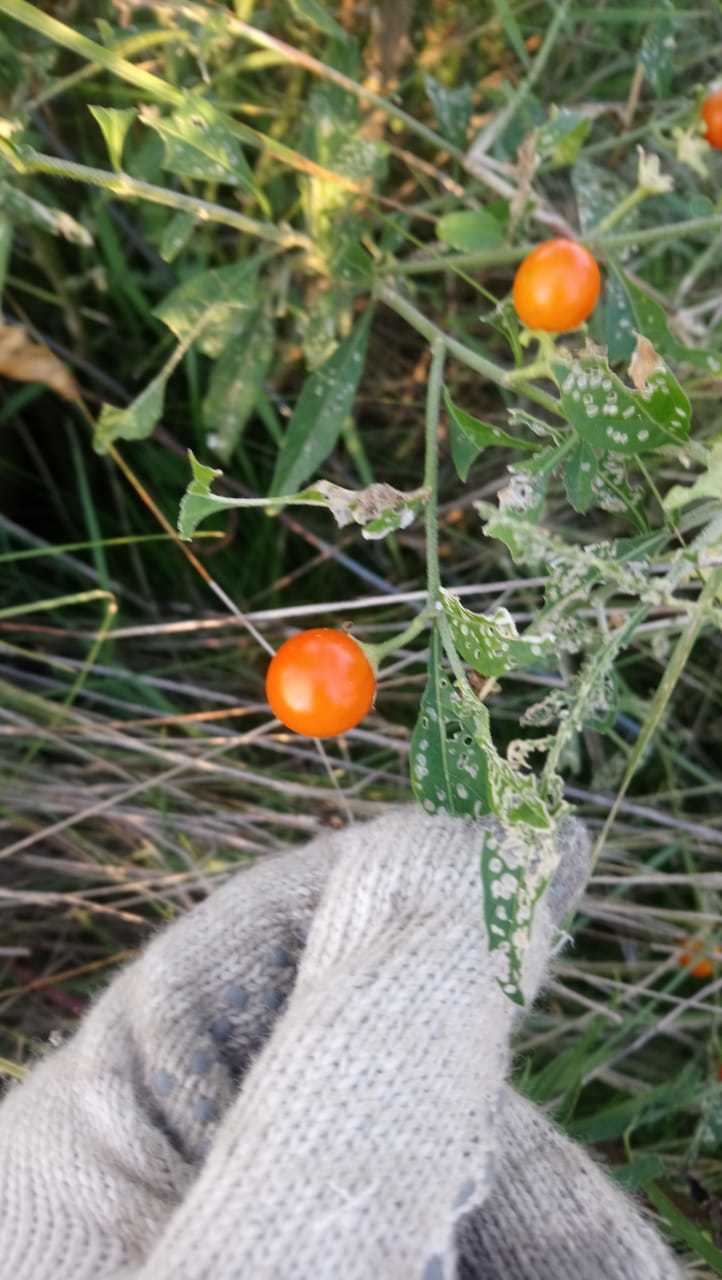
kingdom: Plantae
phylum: Tracheophyta
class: Magnoliopsida
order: Solanales
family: Solanaceae
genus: Solanum
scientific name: Solanum pseudocapsicum
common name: Jerusalem cherry
